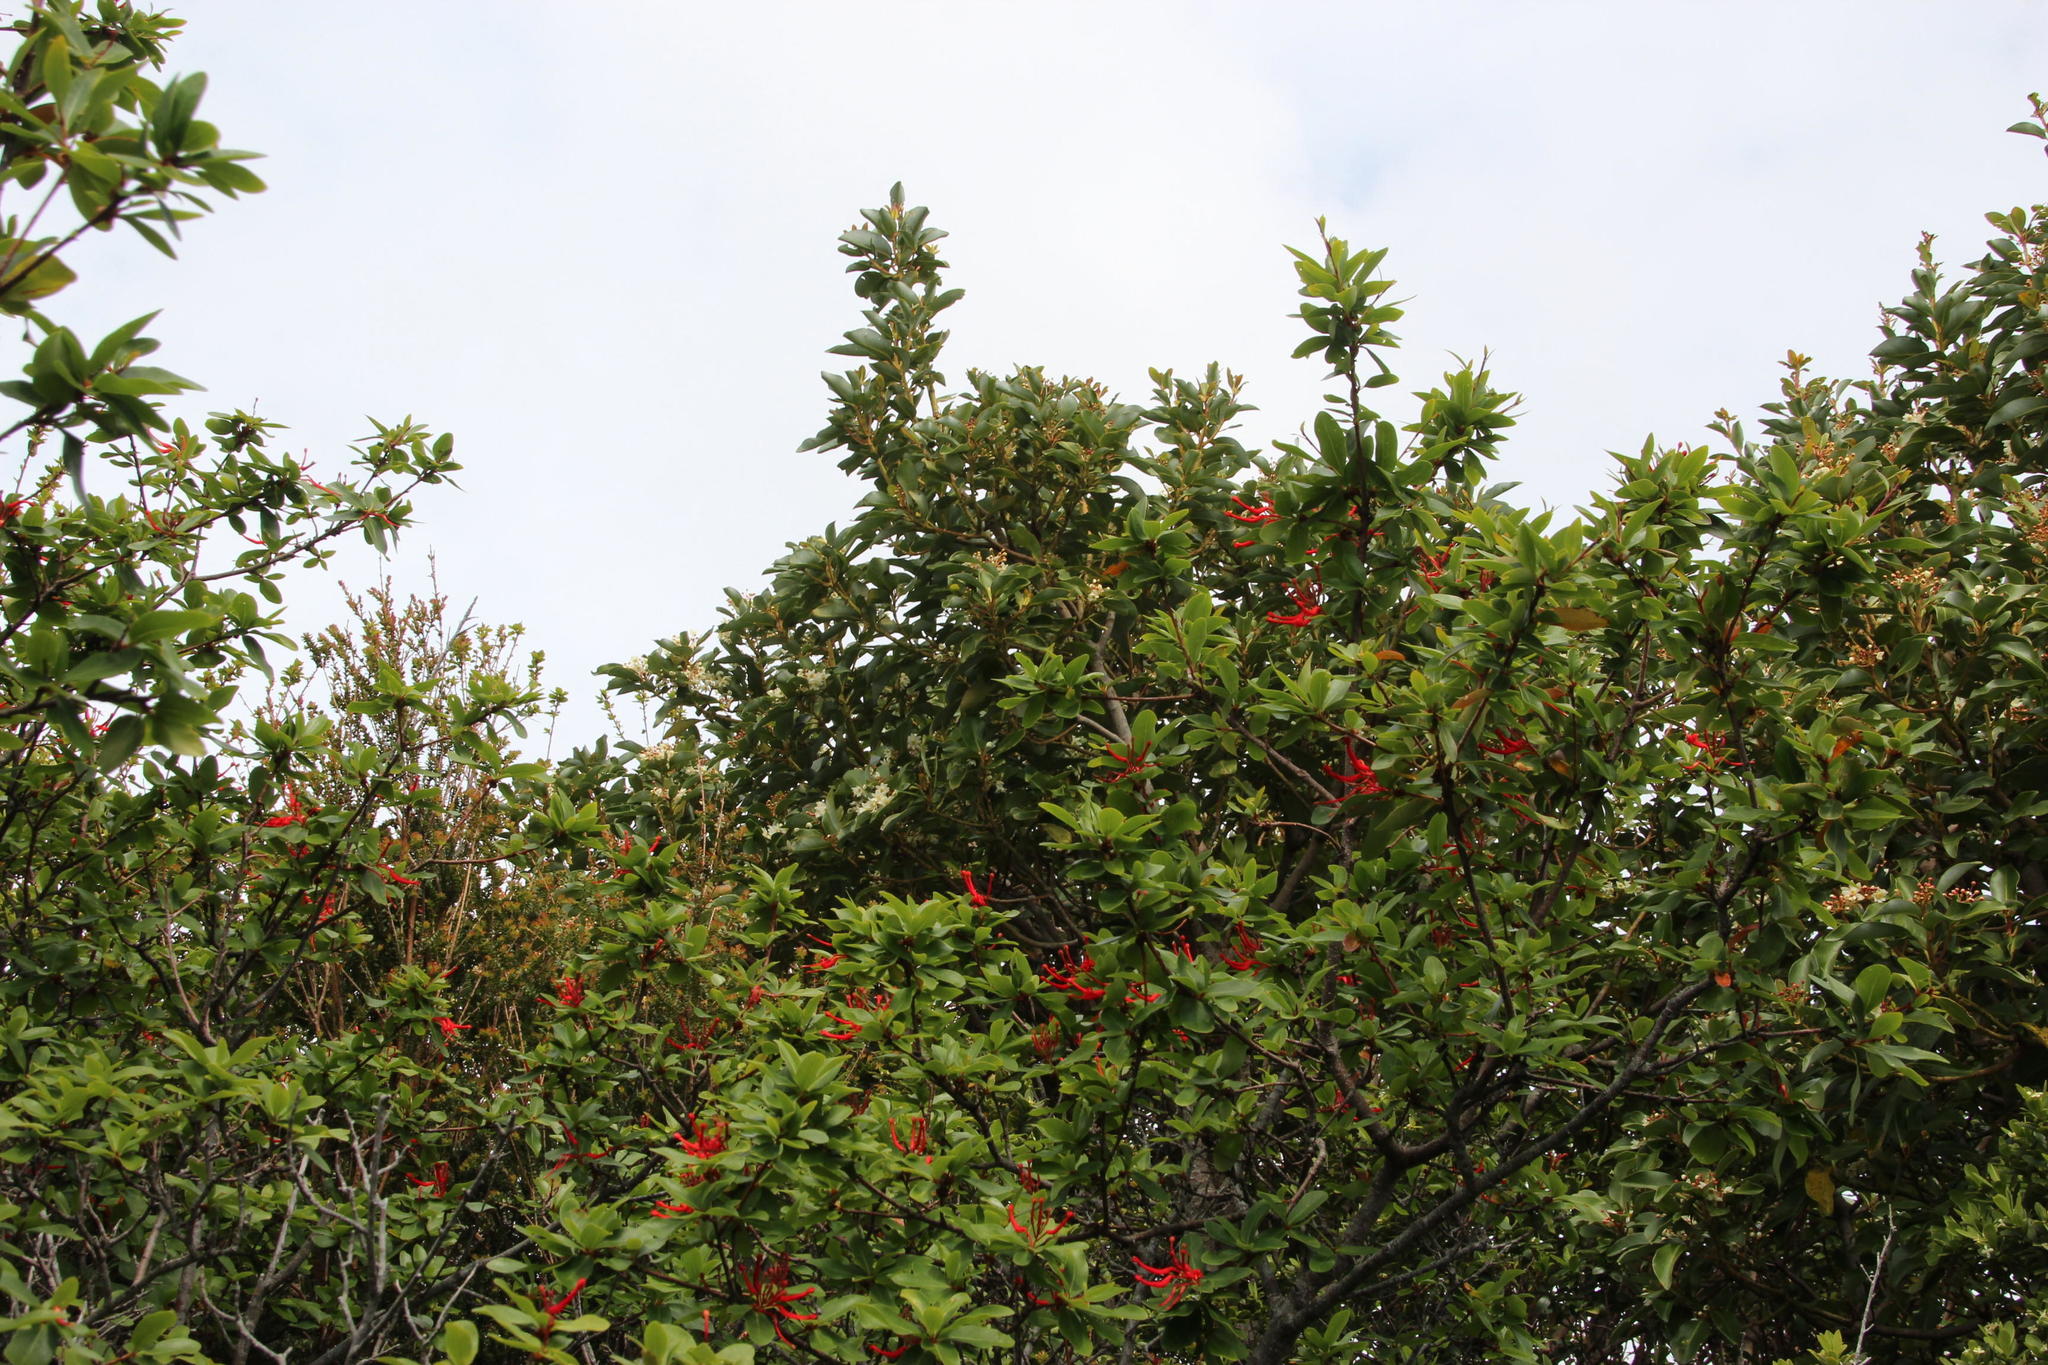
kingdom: Plantae
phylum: Tracheophyta
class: Magnoliopsida
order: Proteales
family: Proteaceae
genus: Embothrium
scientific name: Embothrium coccineum
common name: Chilean firebush
